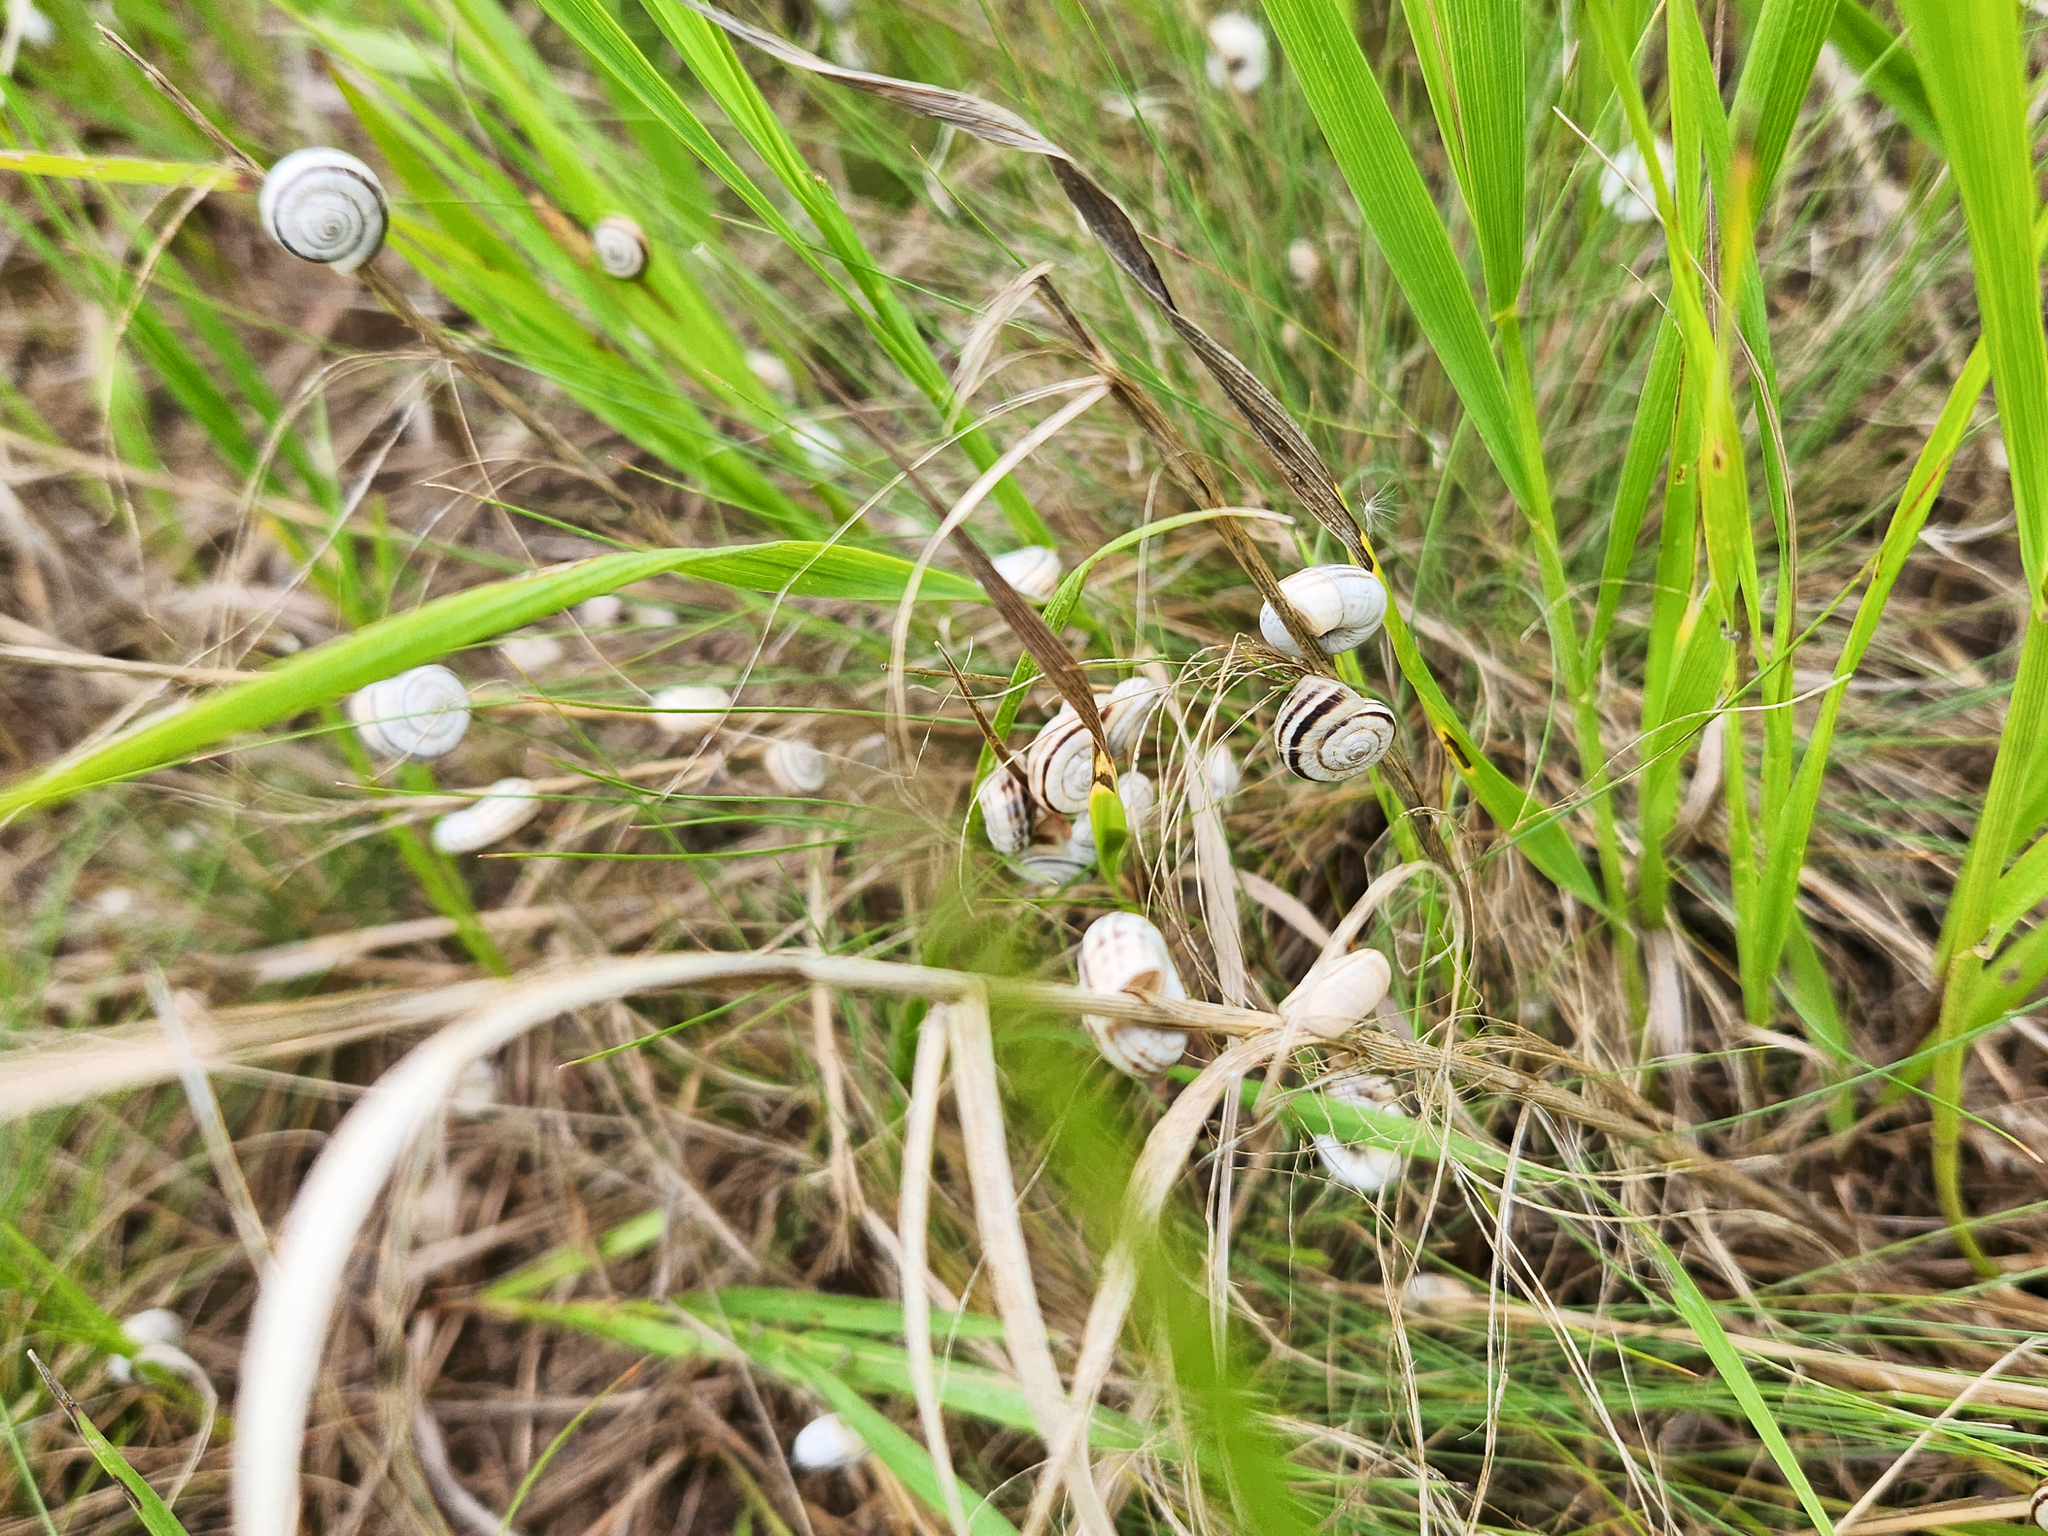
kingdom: Animalia
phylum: Mollusca
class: Gastropoda
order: Stylommatophora
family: Geomitridae
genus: Xerolenta
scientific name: Xerolenta obvia
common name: White heath snail
